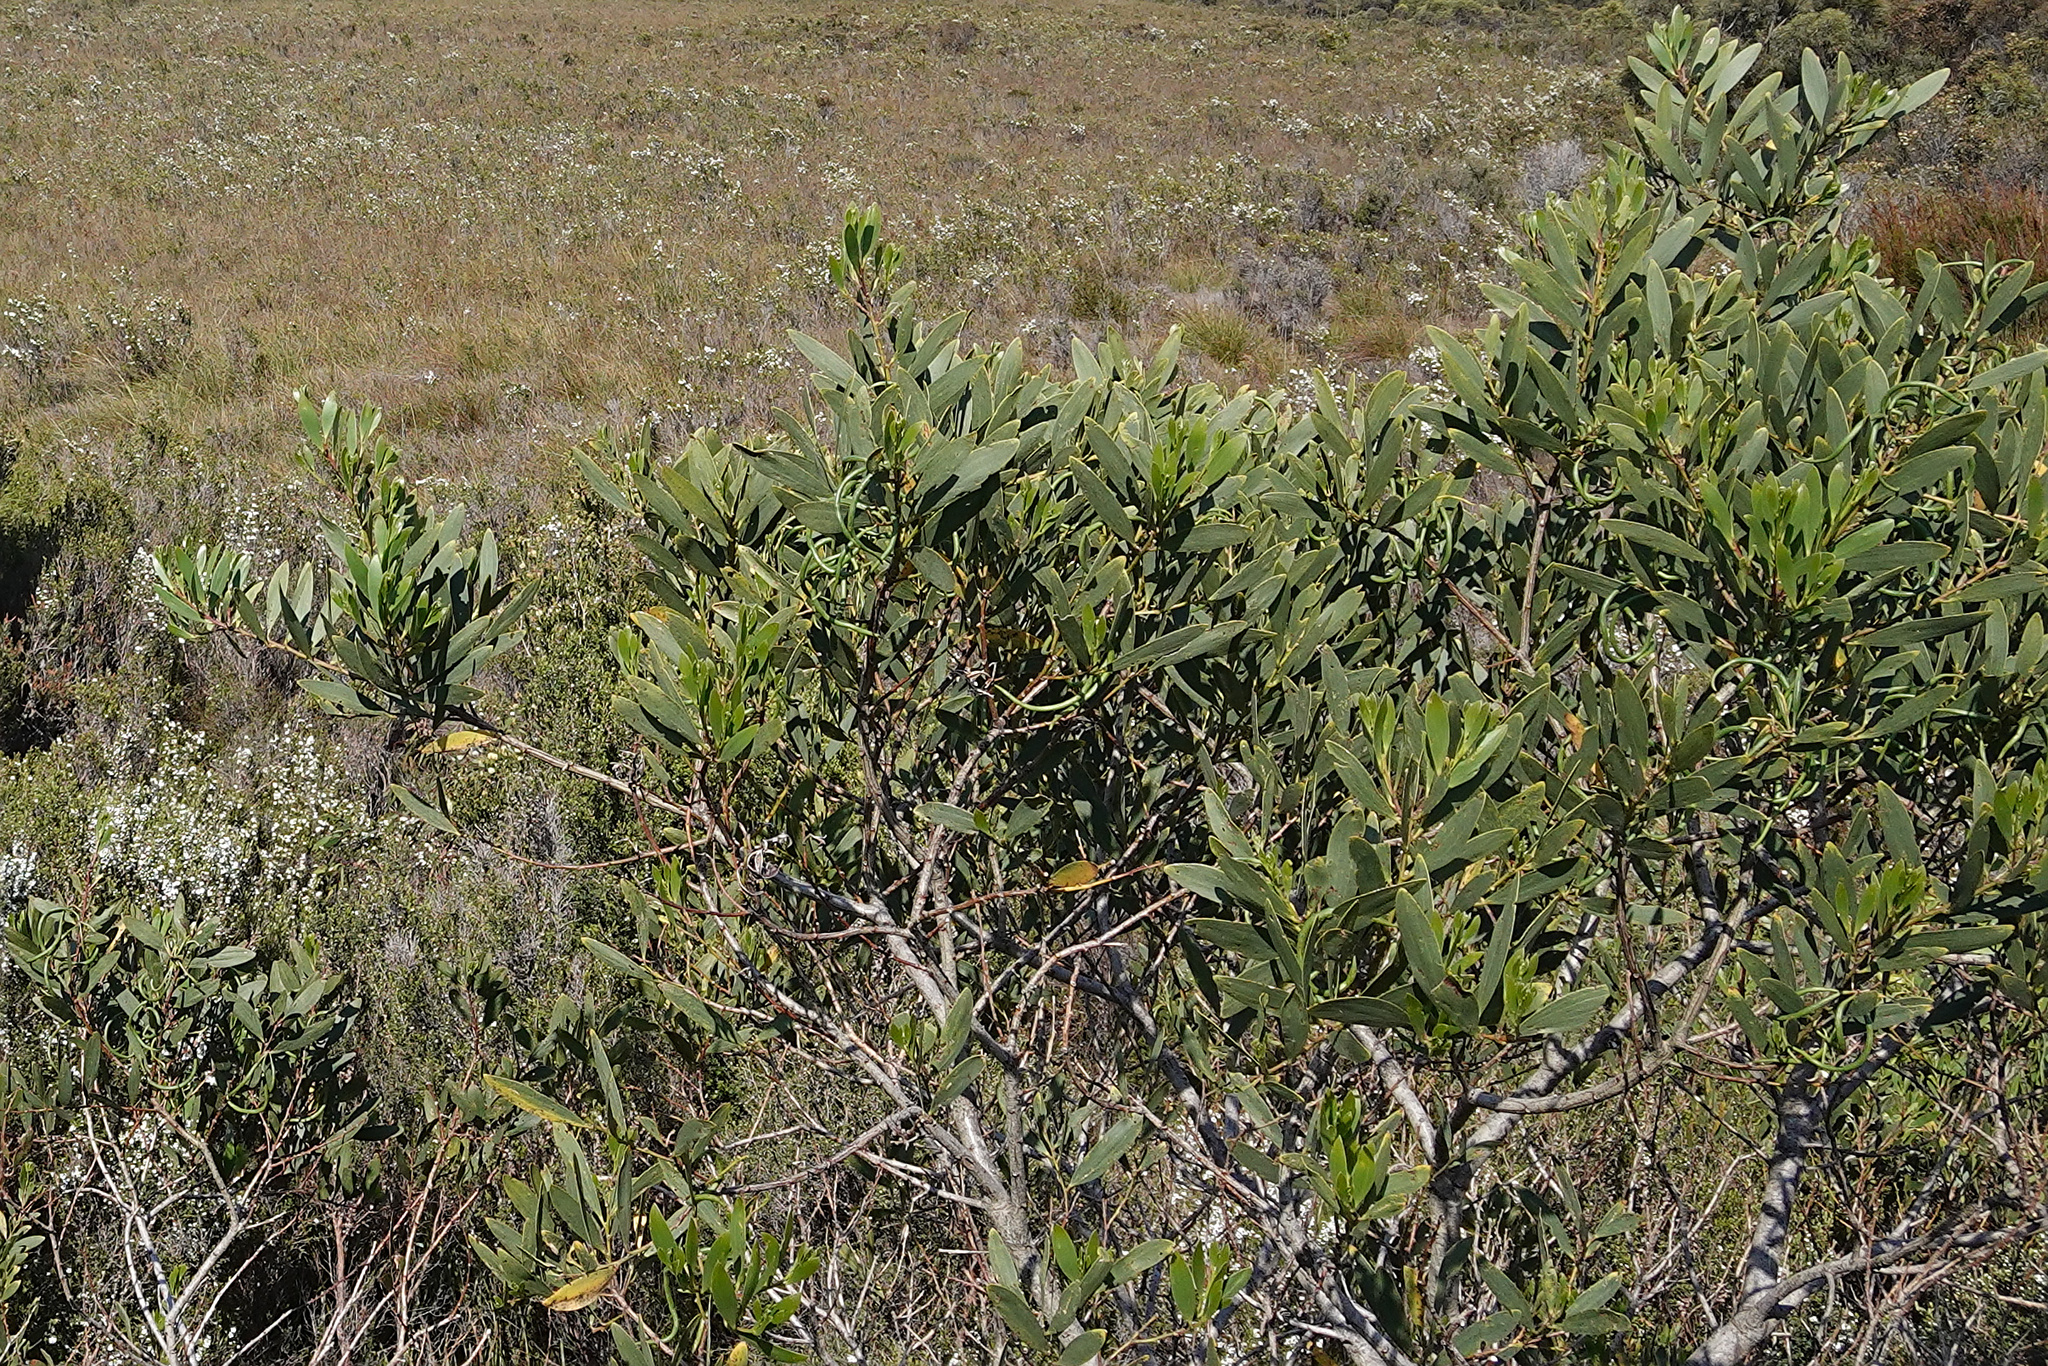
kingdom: Plantae
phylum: Tracheophyta
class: Magnoliopsida
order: Fabales
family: Fabaceae
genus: Acacia
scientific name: Acacia longifolia
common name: Sydney golden wattle
